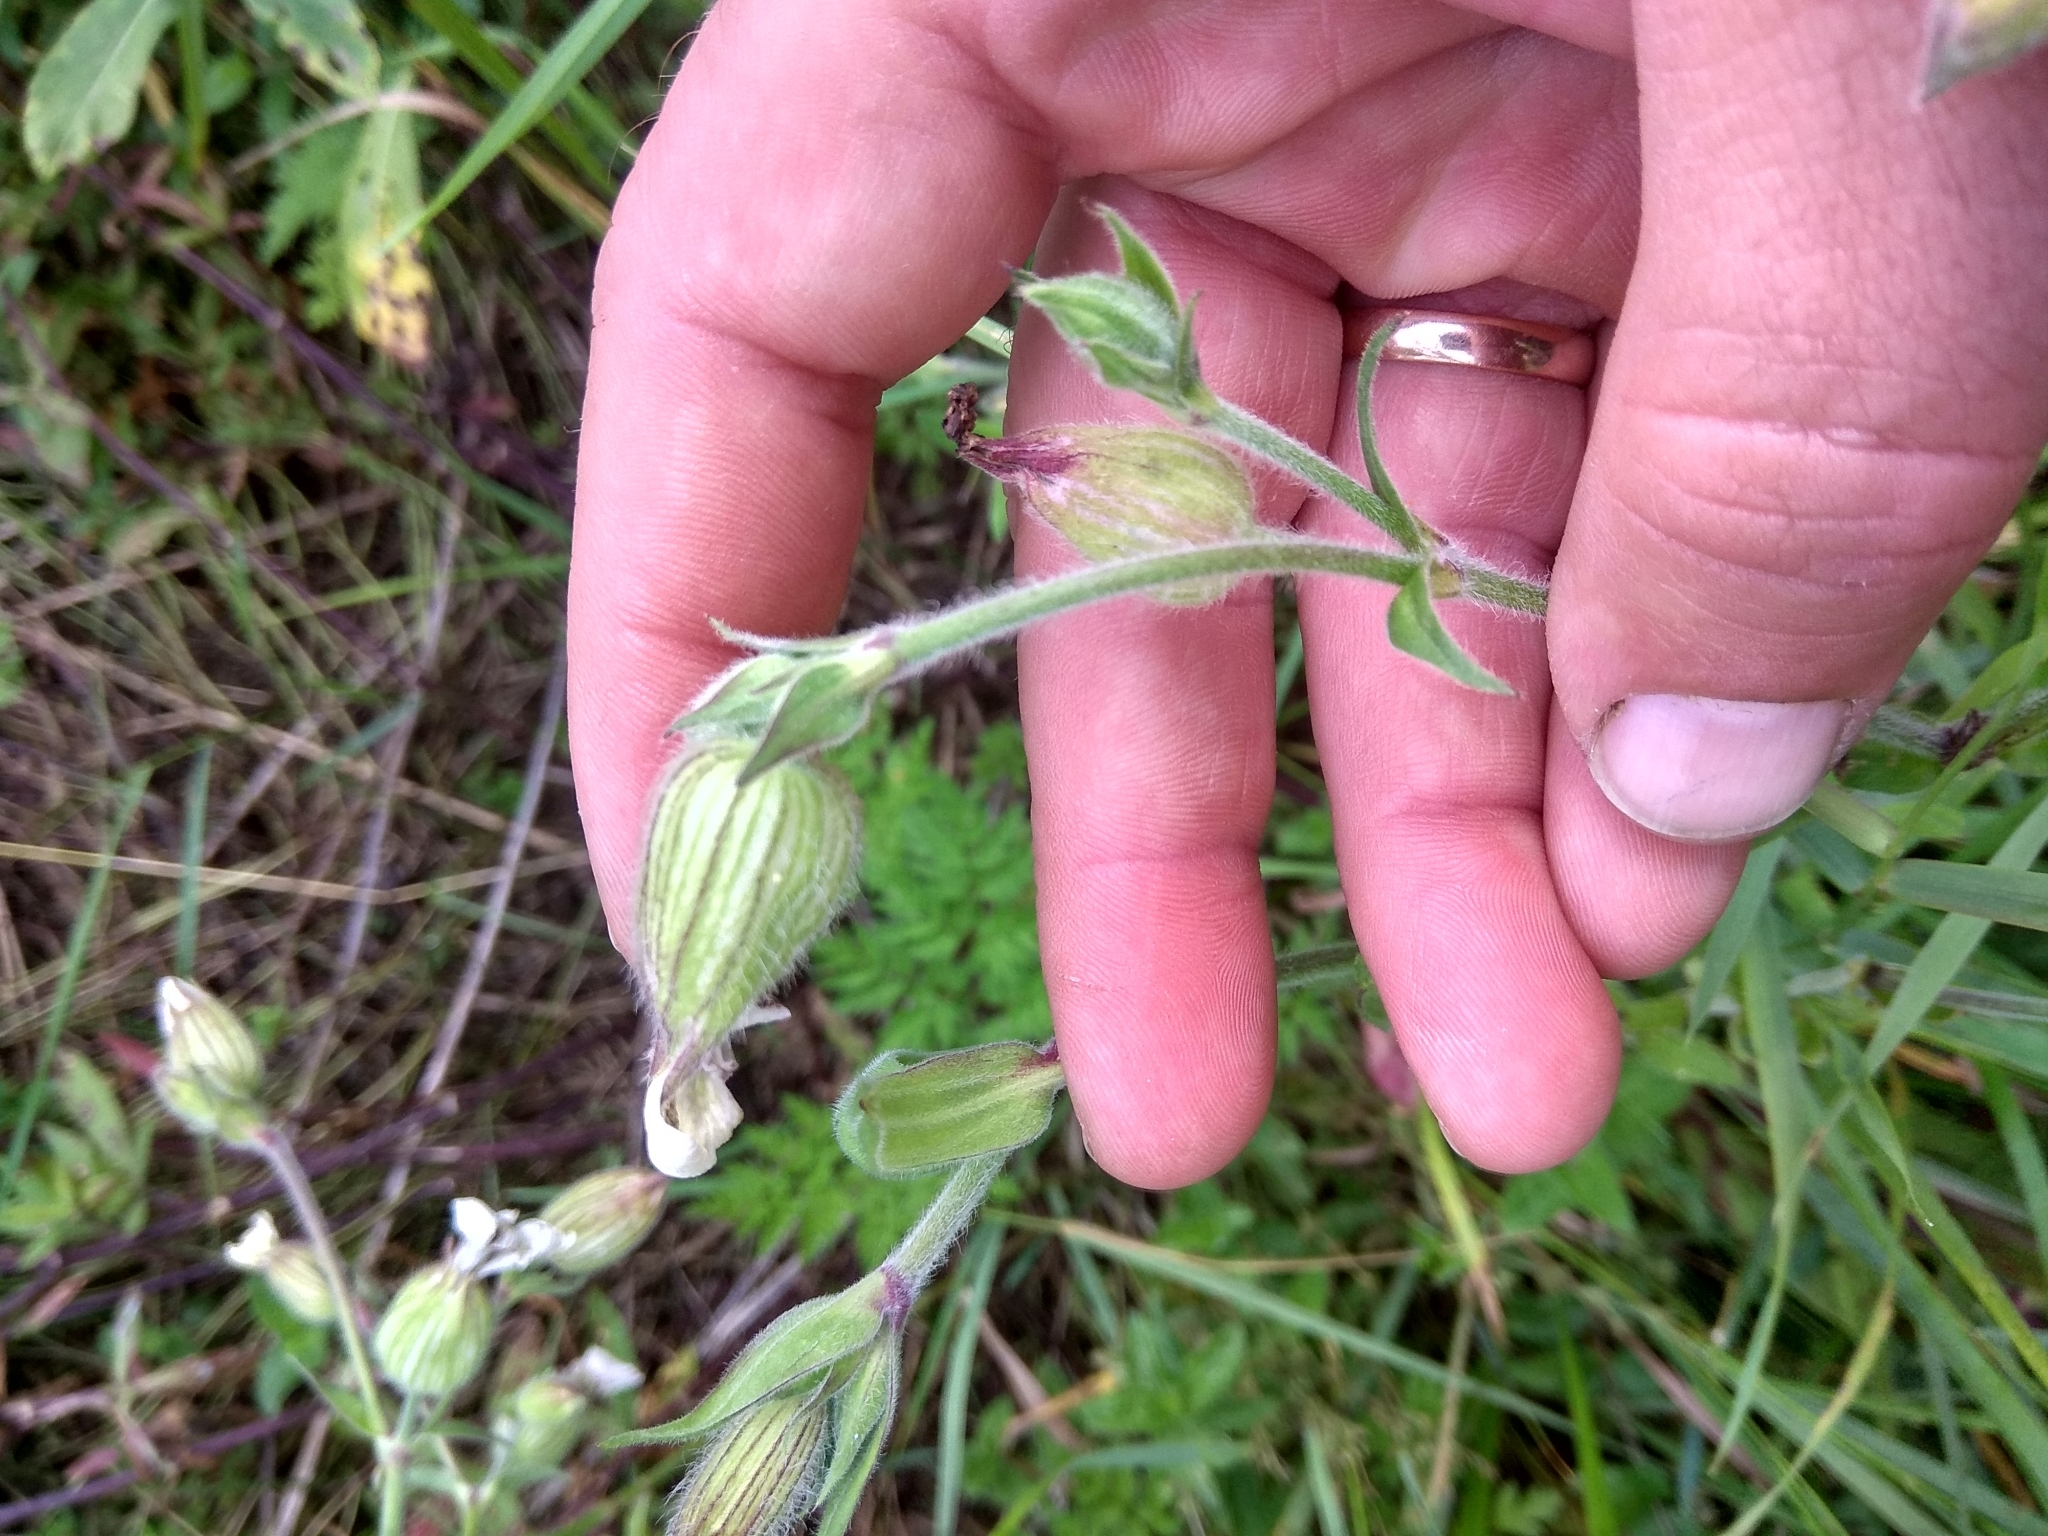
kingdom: Plantae
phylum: Tracheophyta
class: Magnoliopsida
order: Caryophyllales
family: Caryophyllaceae
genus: Silene
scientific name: Silene latifolia
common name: White campion
